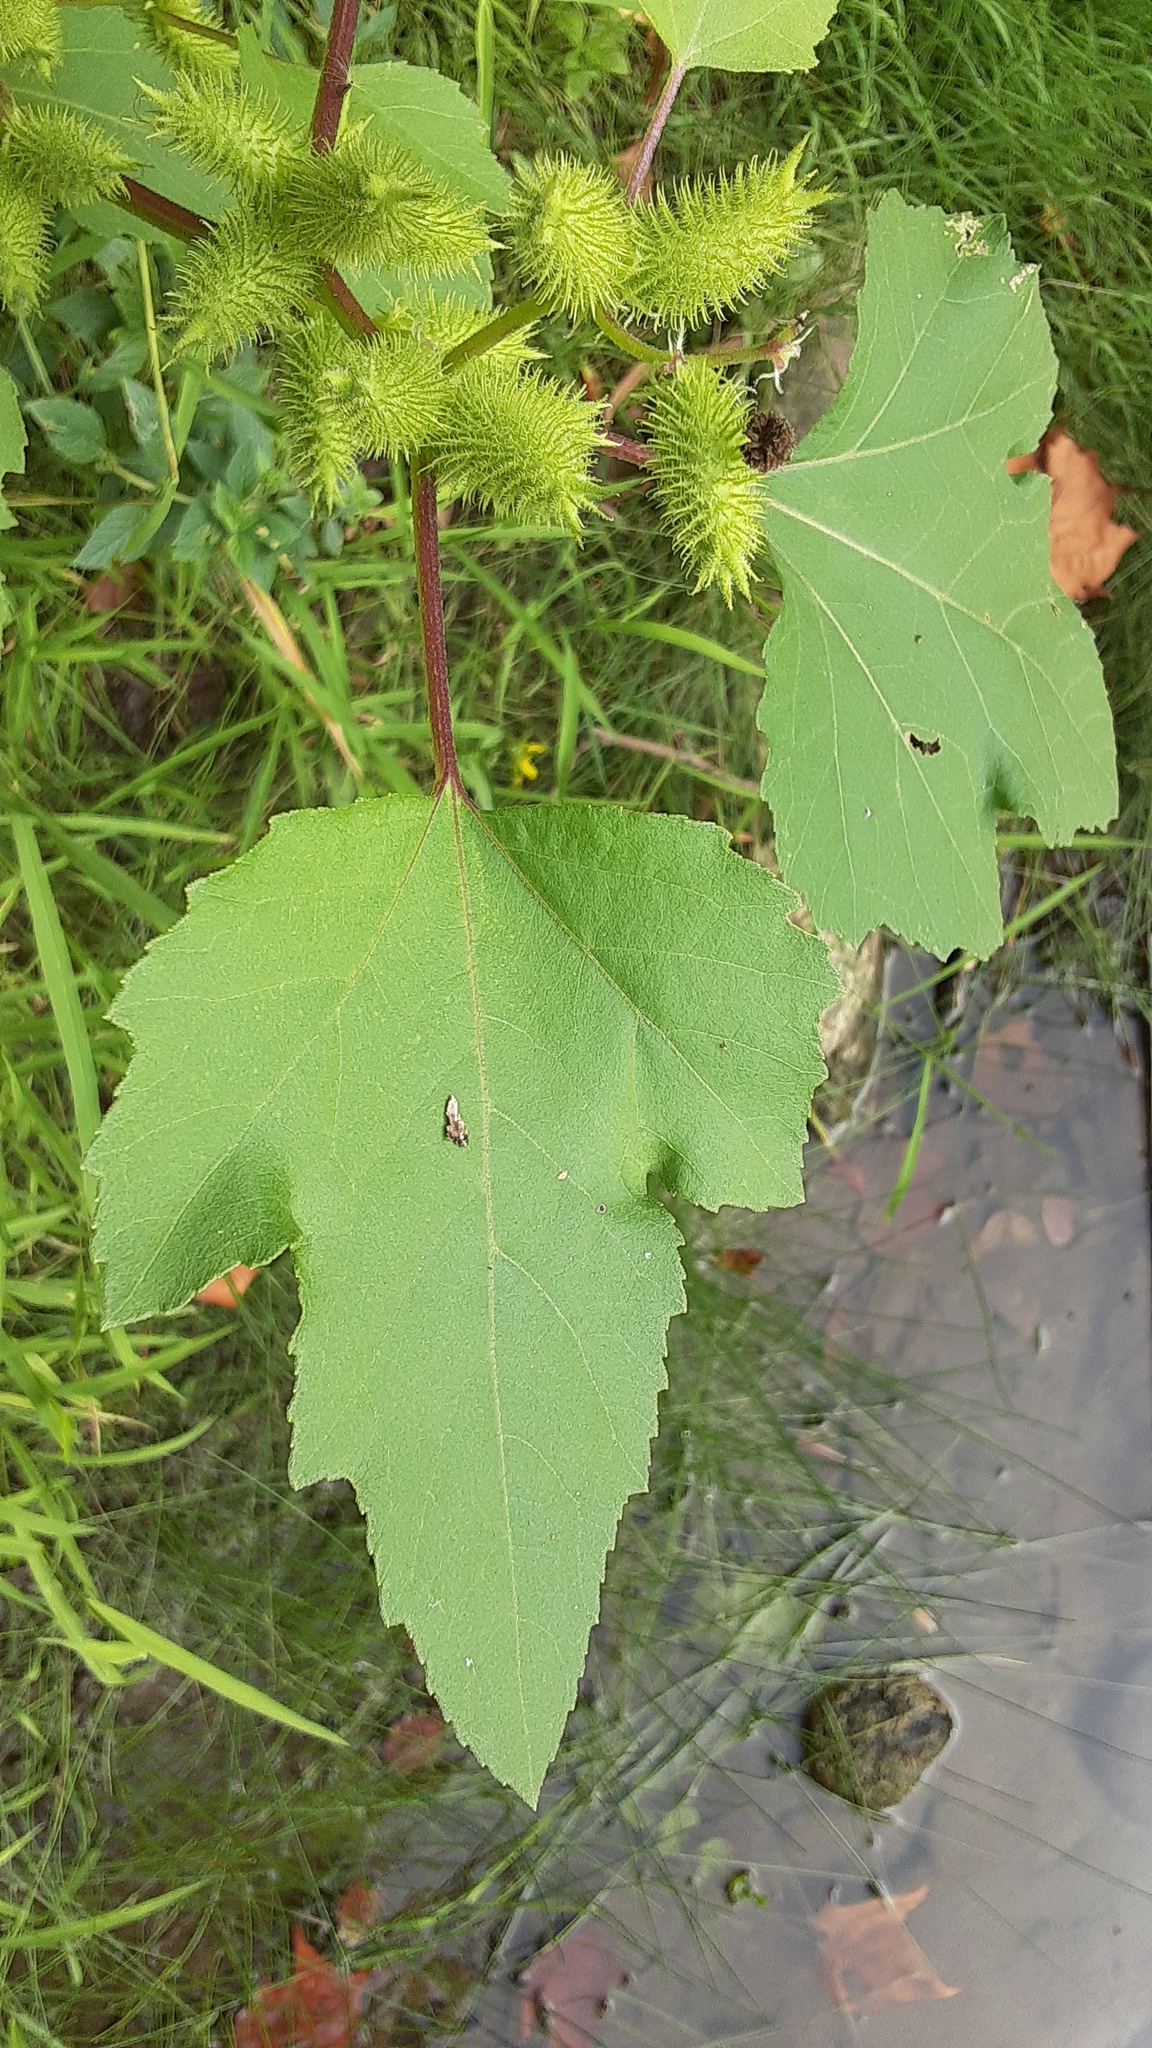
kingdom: Plantae
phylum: Tracheophyta
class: Magnoliopsida
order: Asterales
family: Asteraceae
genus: Xanthium
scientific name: Xanthium strumarium
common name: Rough cocklebur
